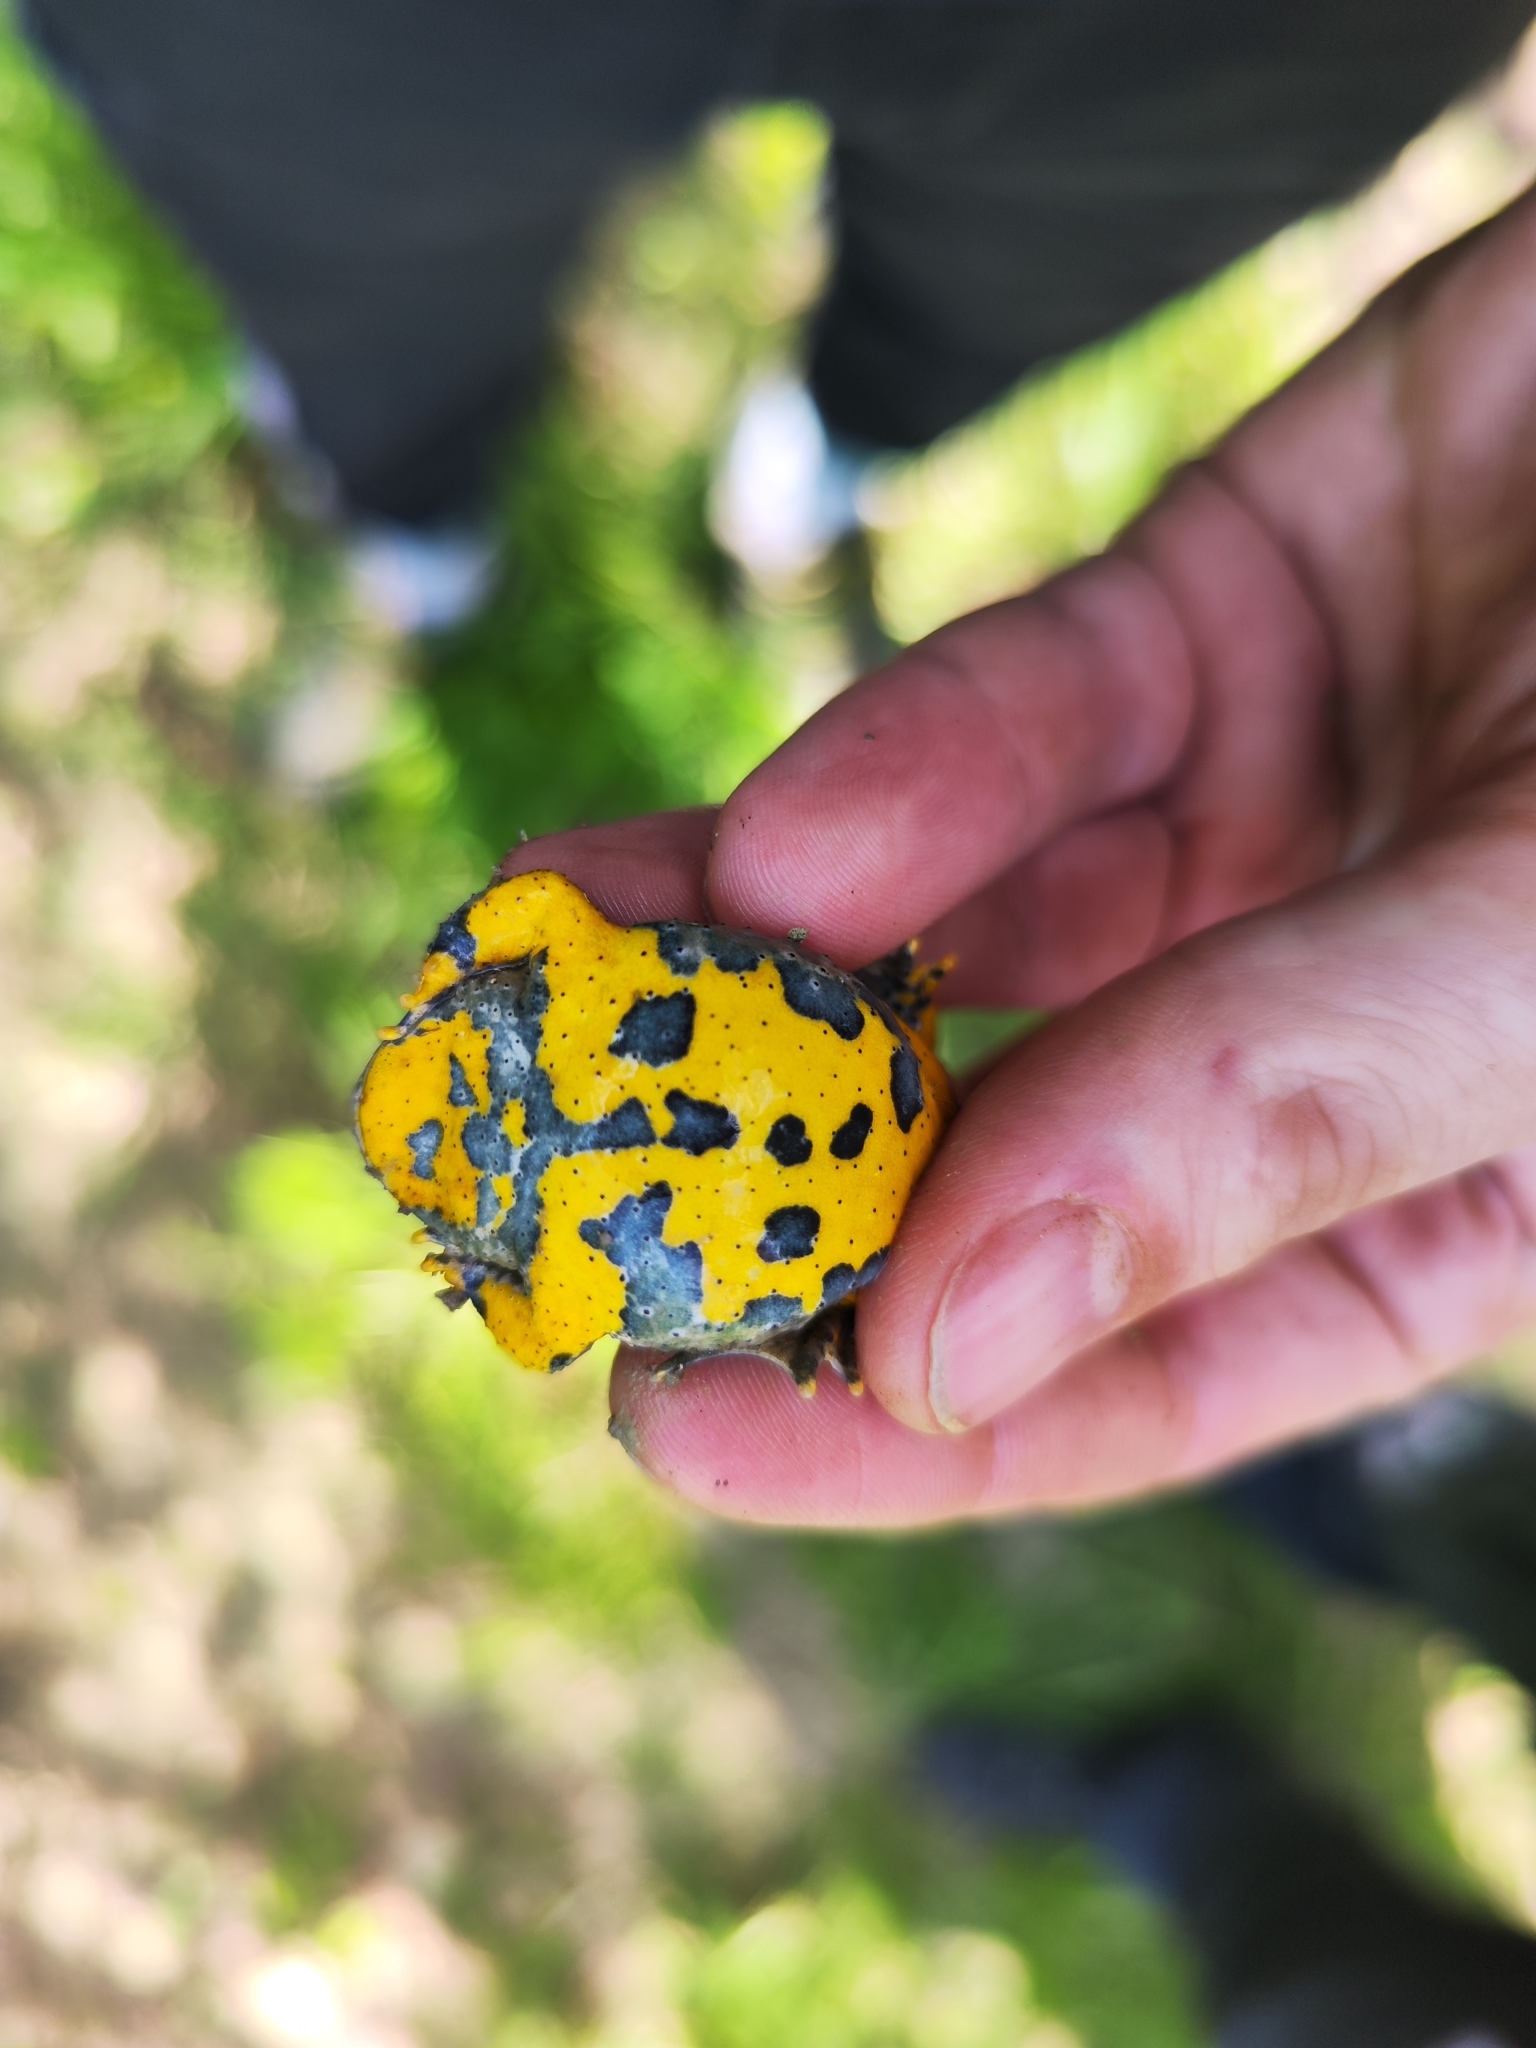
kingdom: Animalia
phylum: Chordata
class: Amphibia
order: Anura
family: Bombinatoridae
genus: Bombina
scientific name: Bombina variegata
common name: Yellow-bellied toad
